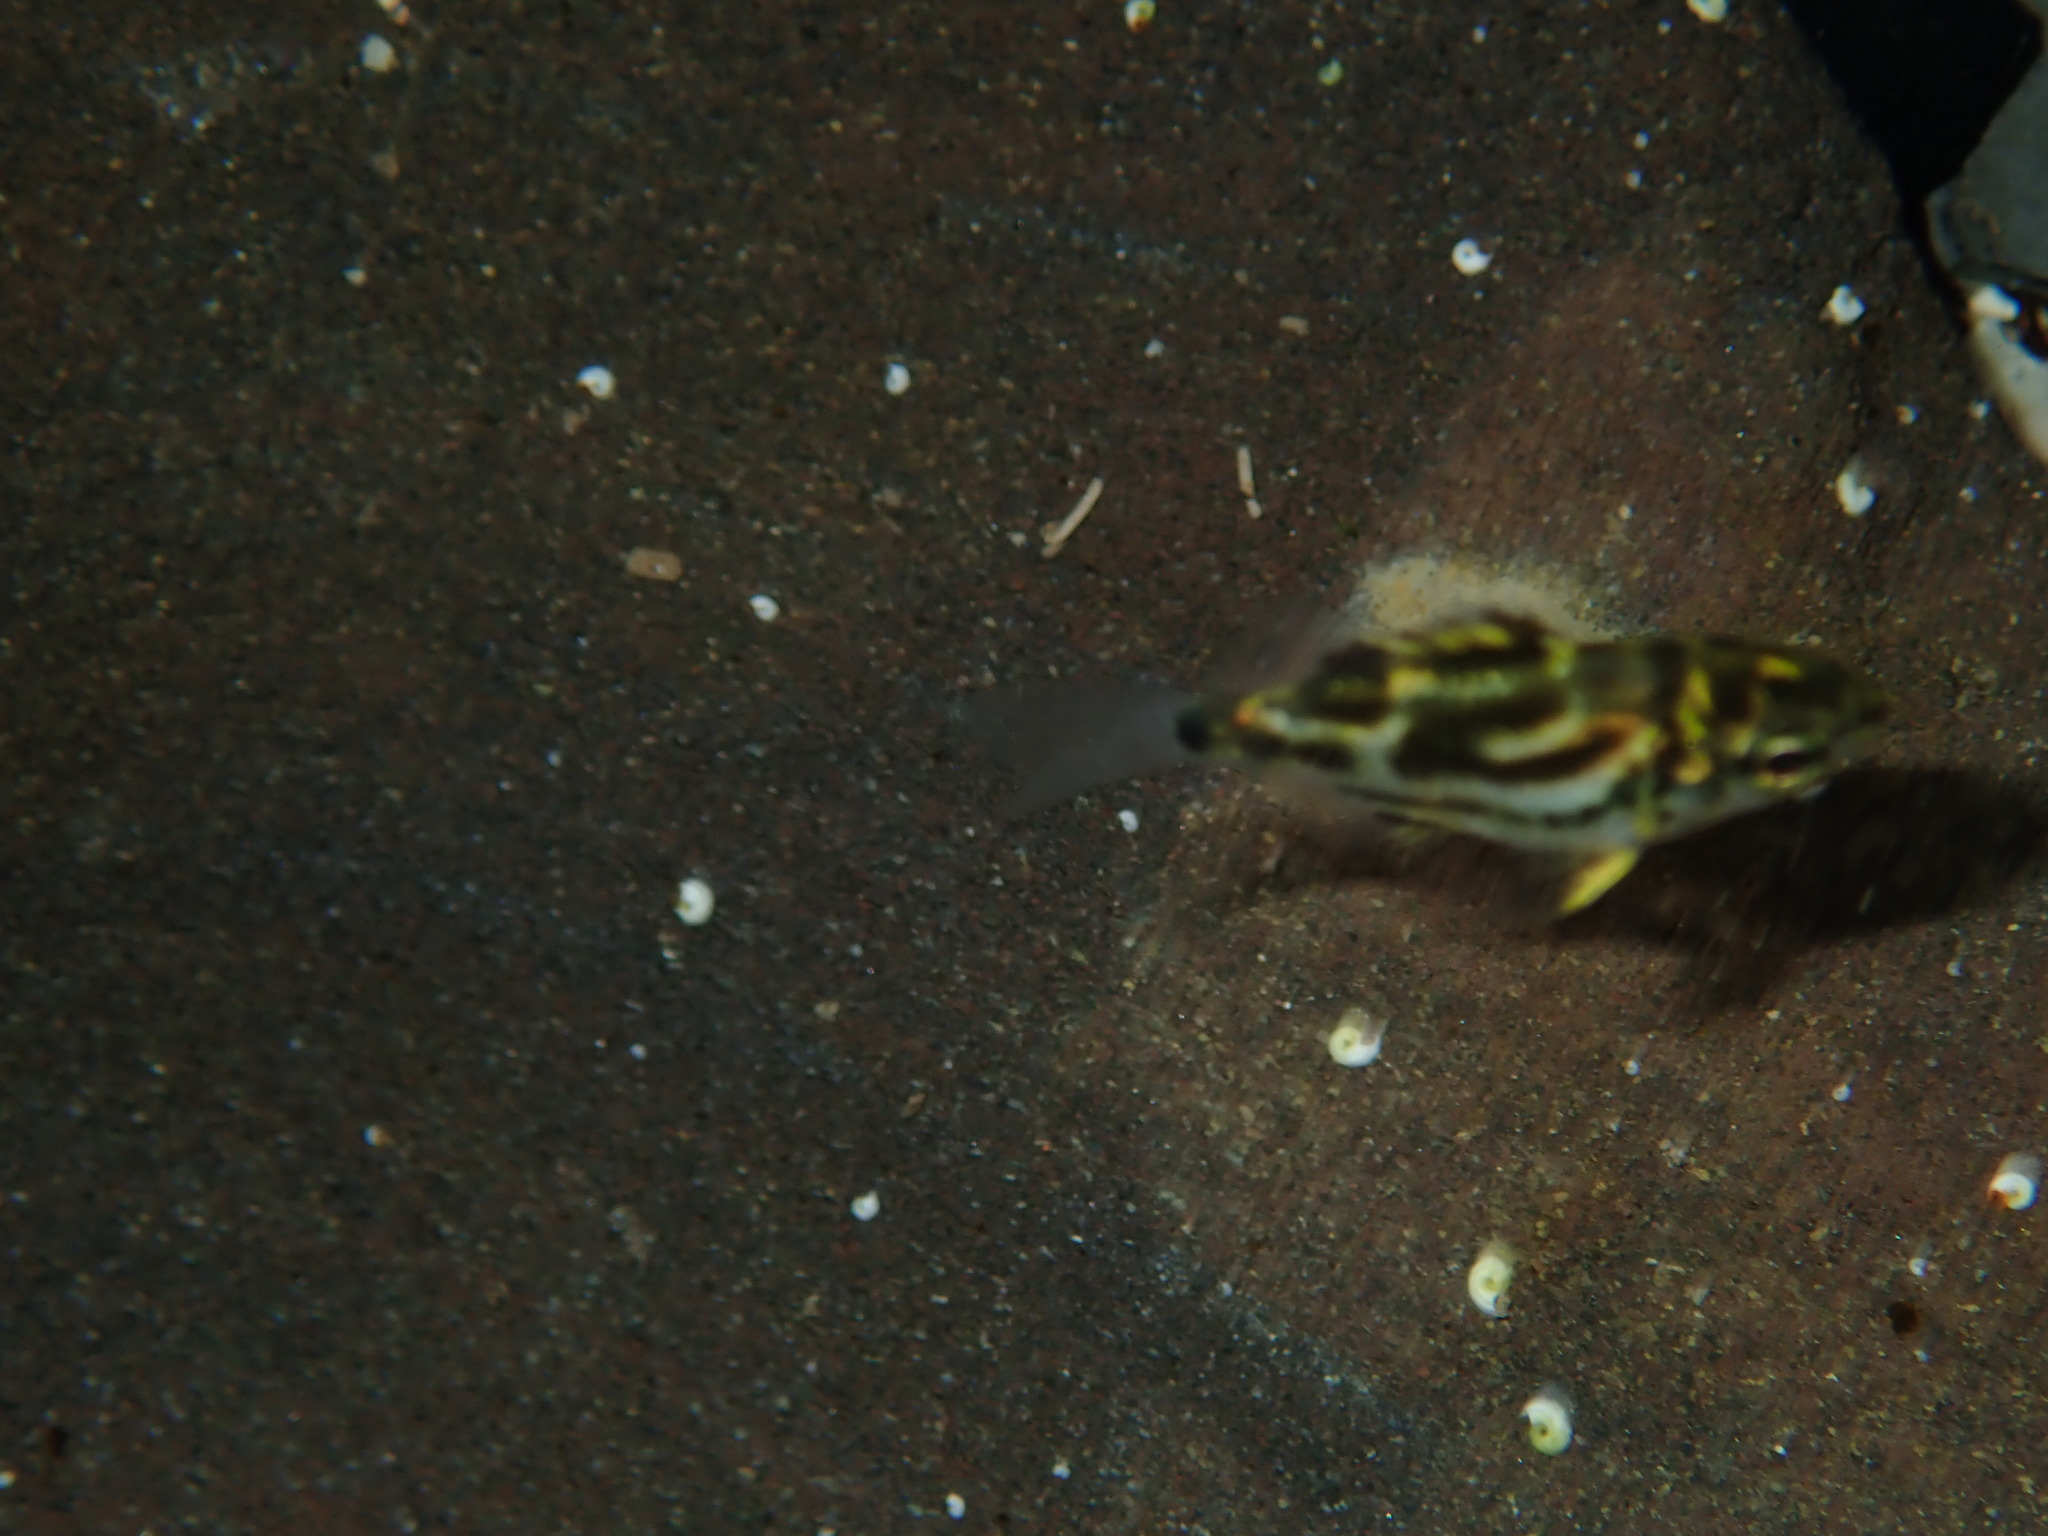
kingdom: Animalia
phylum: Chordata
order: Perciformes
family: Kyphosidae
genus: Microcanthus
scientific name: Microcanthus joyceae
